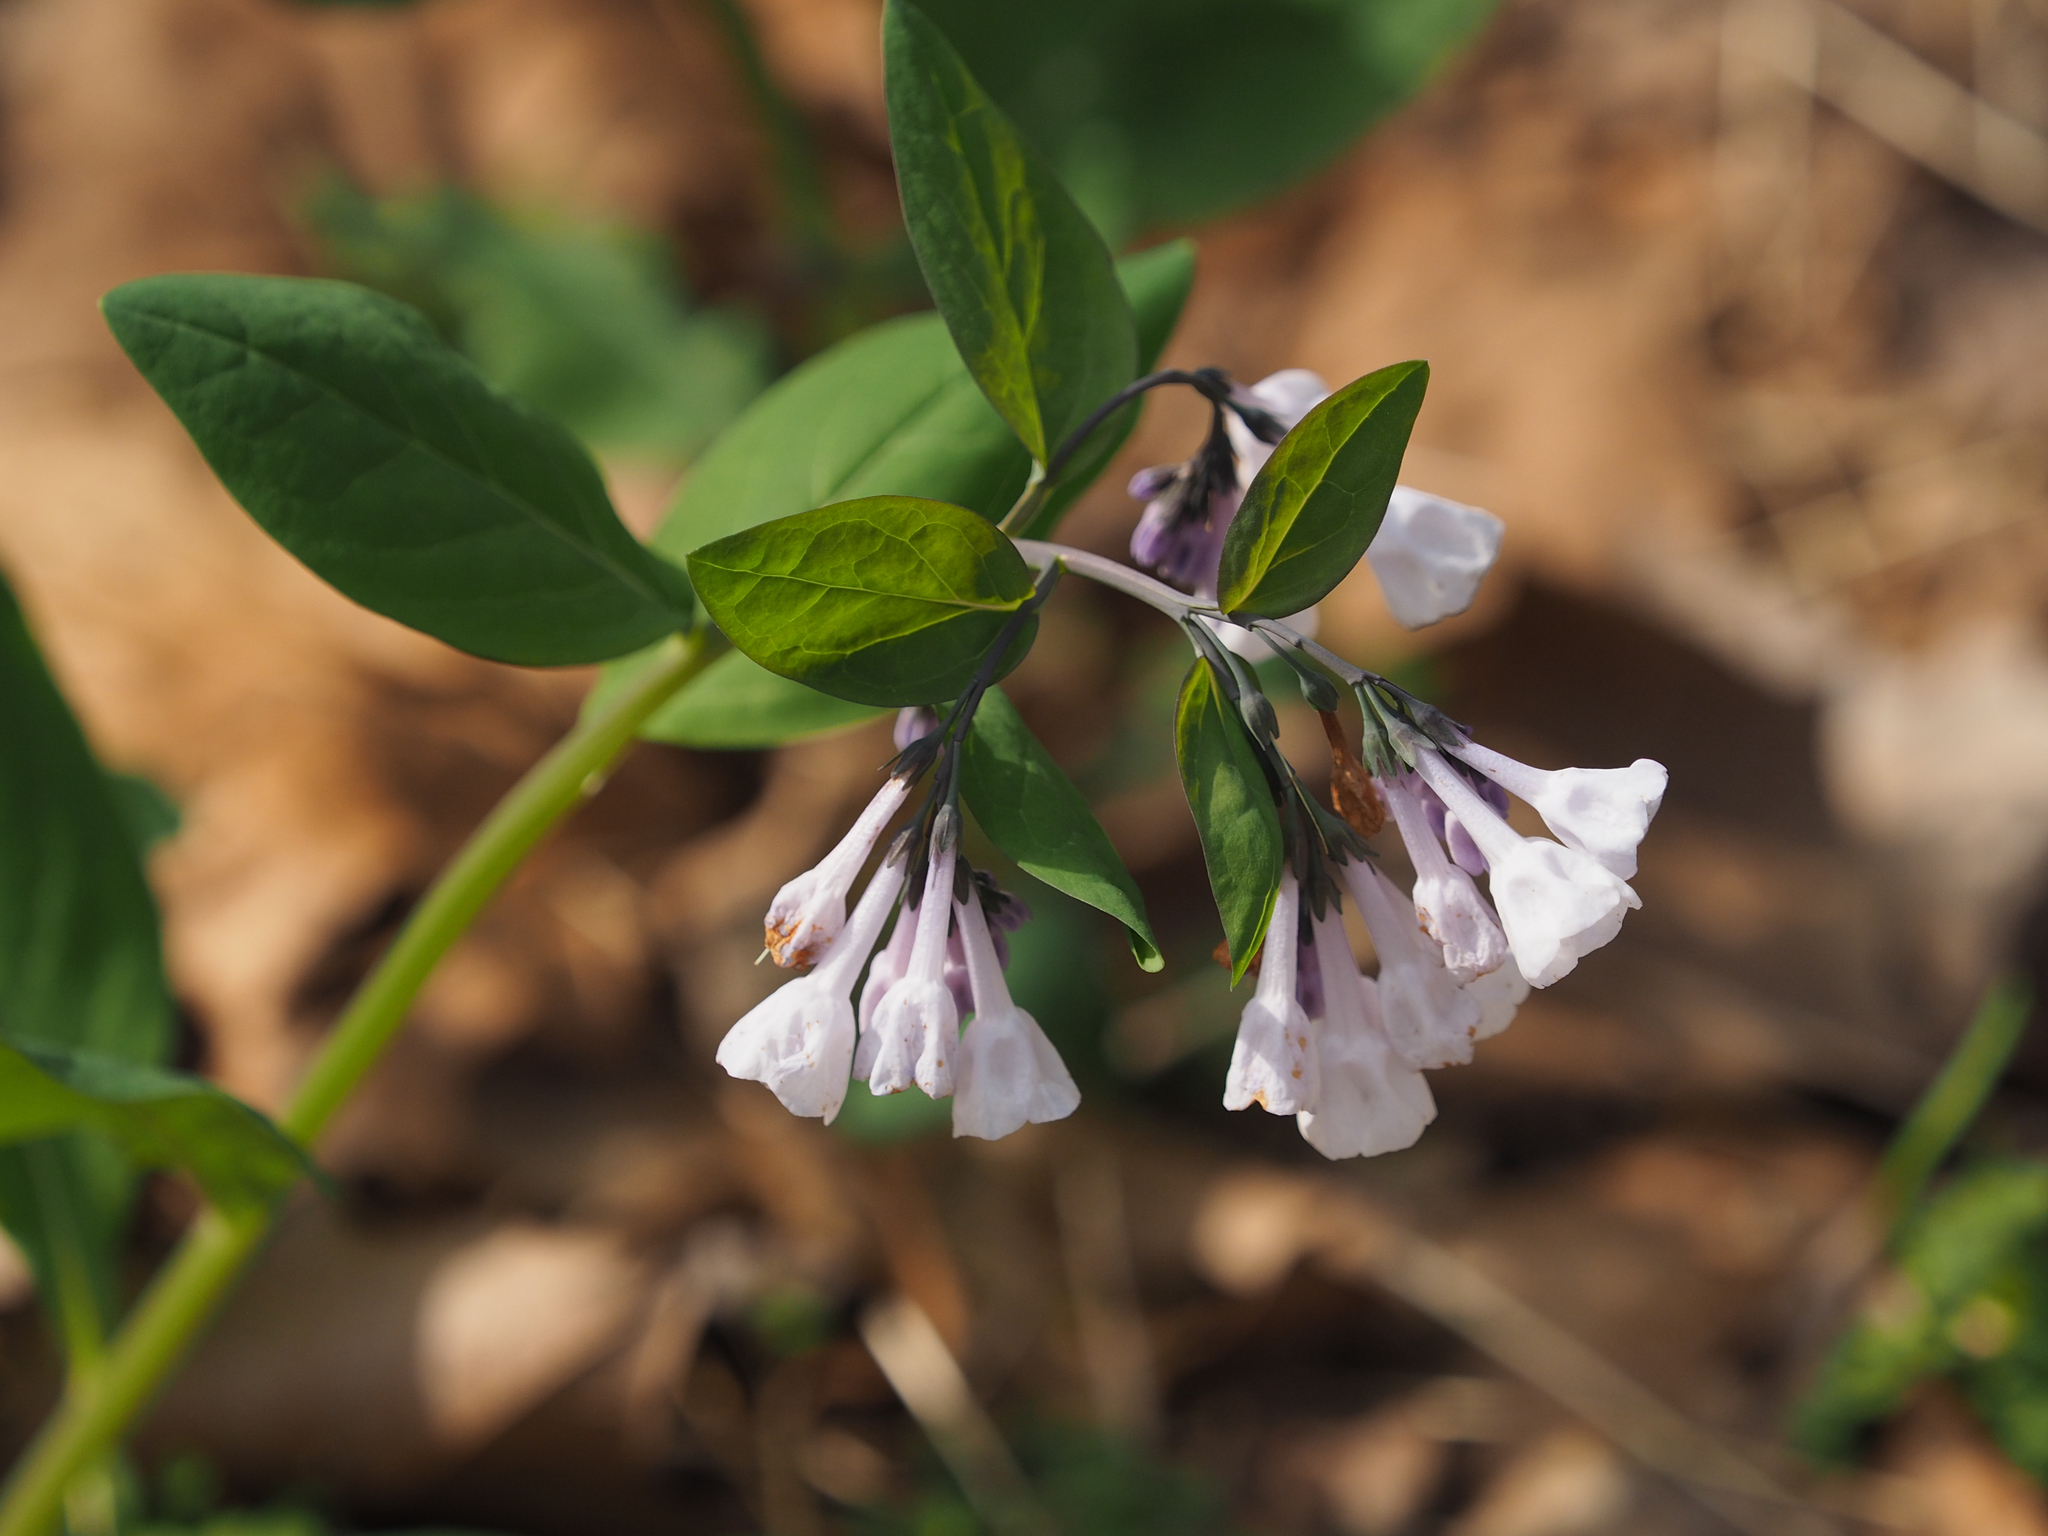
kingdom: Plantae
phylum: Tracheophyta
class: Magnoliopsida
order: Boraginales
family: Boraginaceae
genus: Mertensia
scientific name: Mertensia virginica
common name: Virginia bluebells
